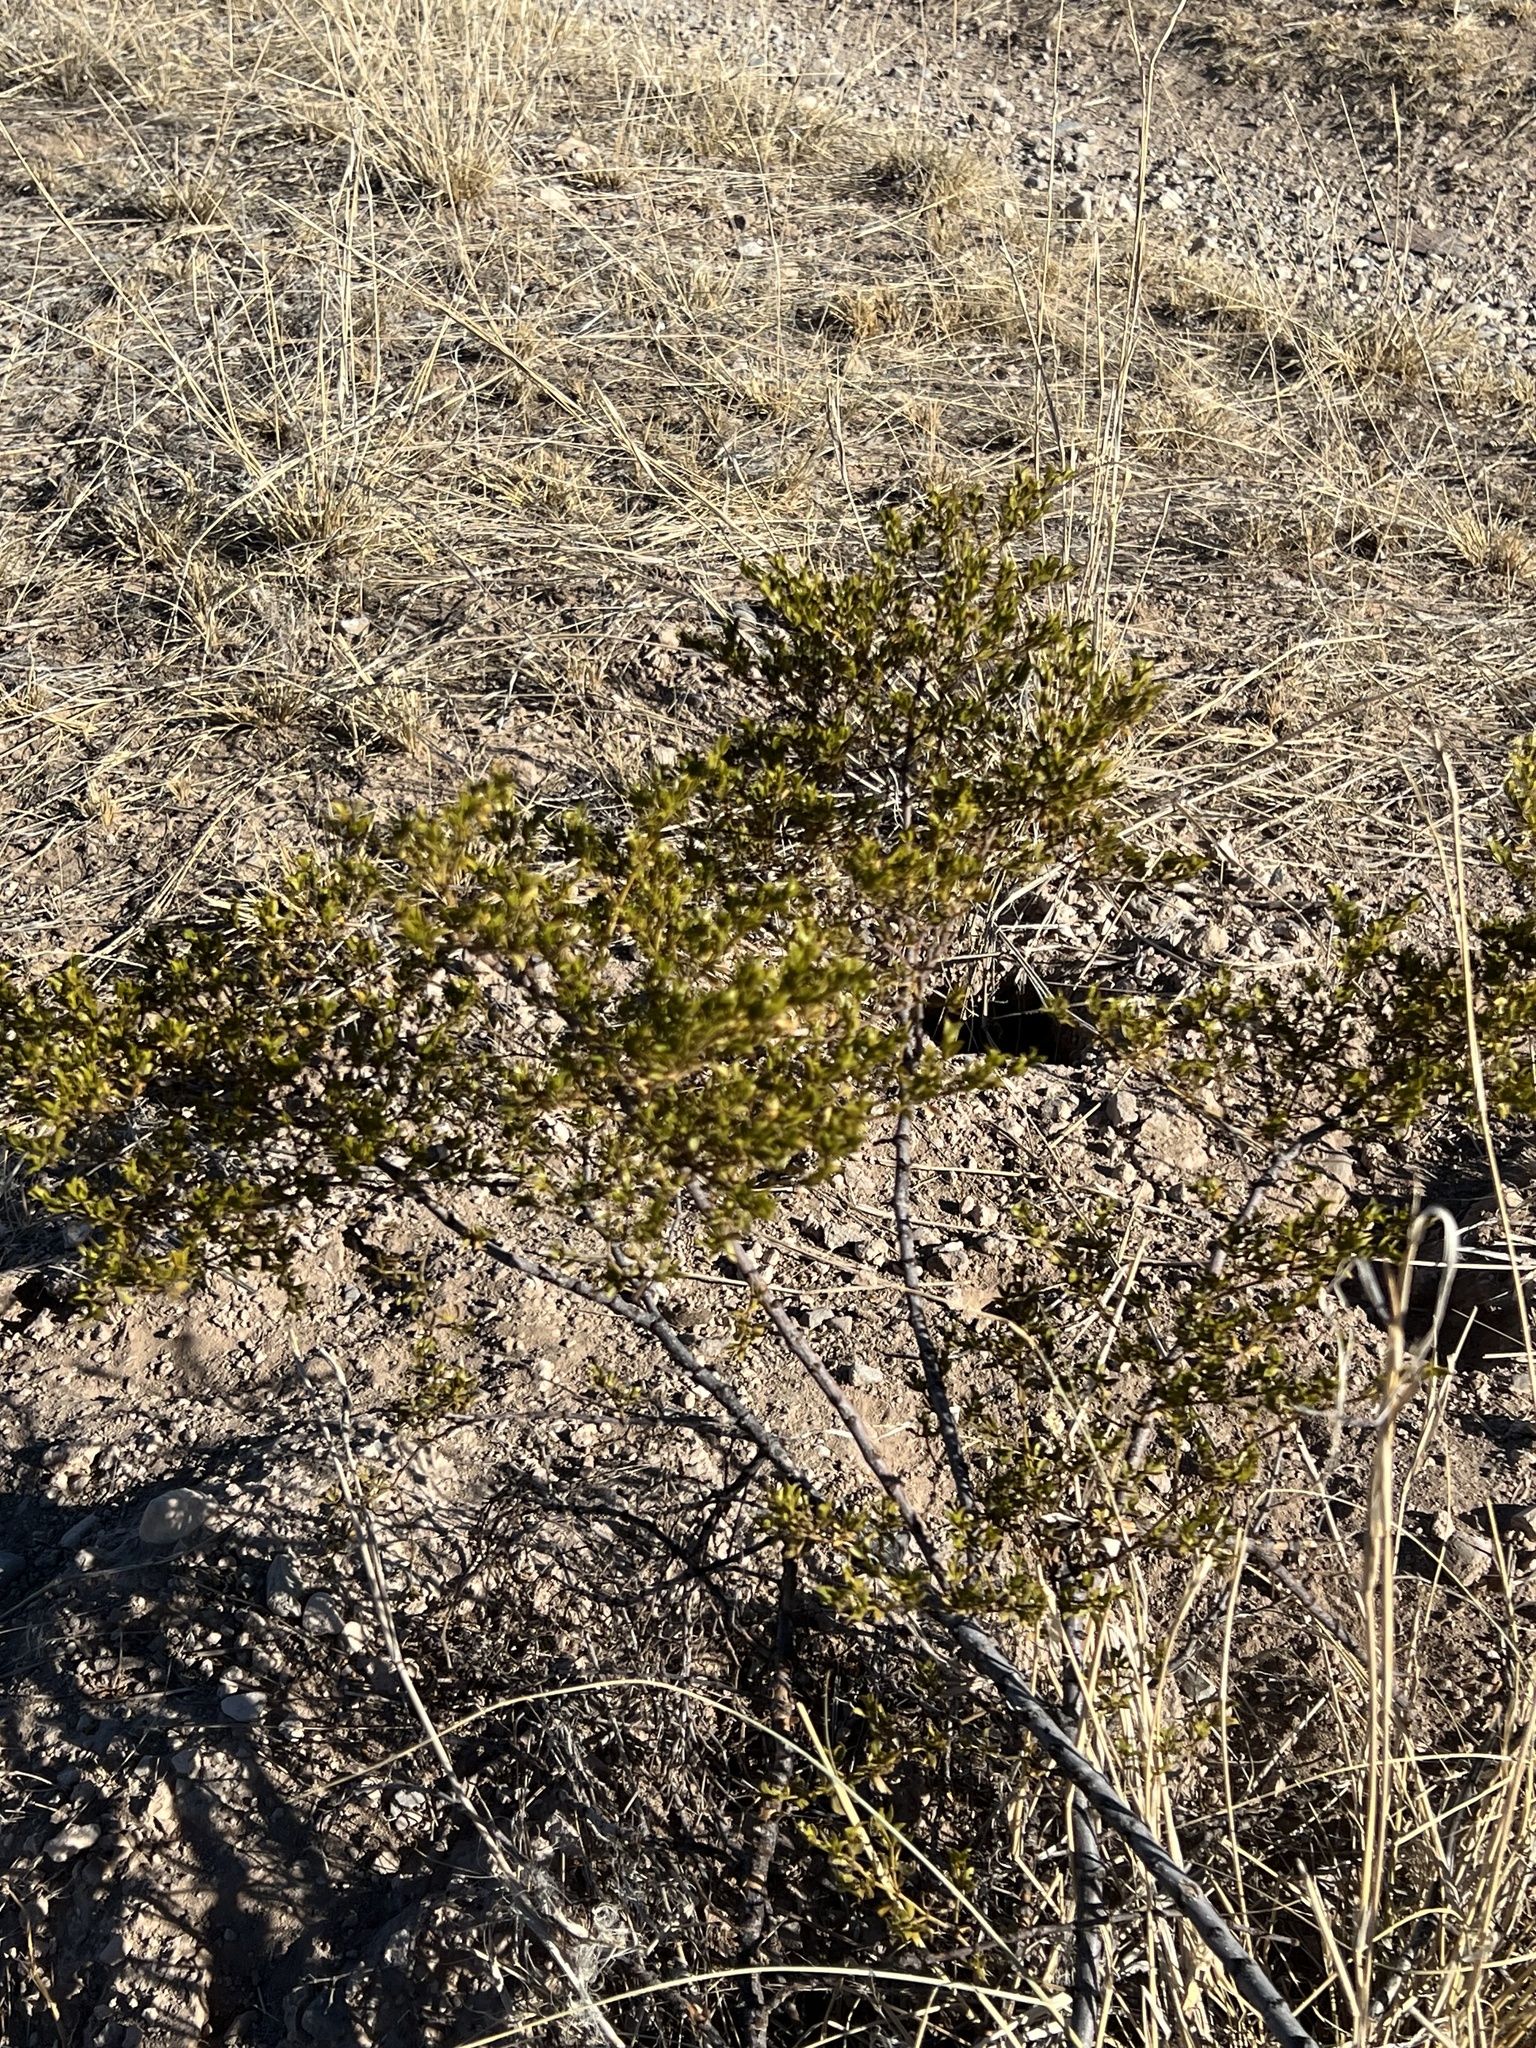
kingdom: Plantae
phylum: Tracheophyta
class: Magnoliopsida
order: Zygophyllales
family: Zygophyllaceae
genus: Larrea
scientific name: Larrea tridentata
